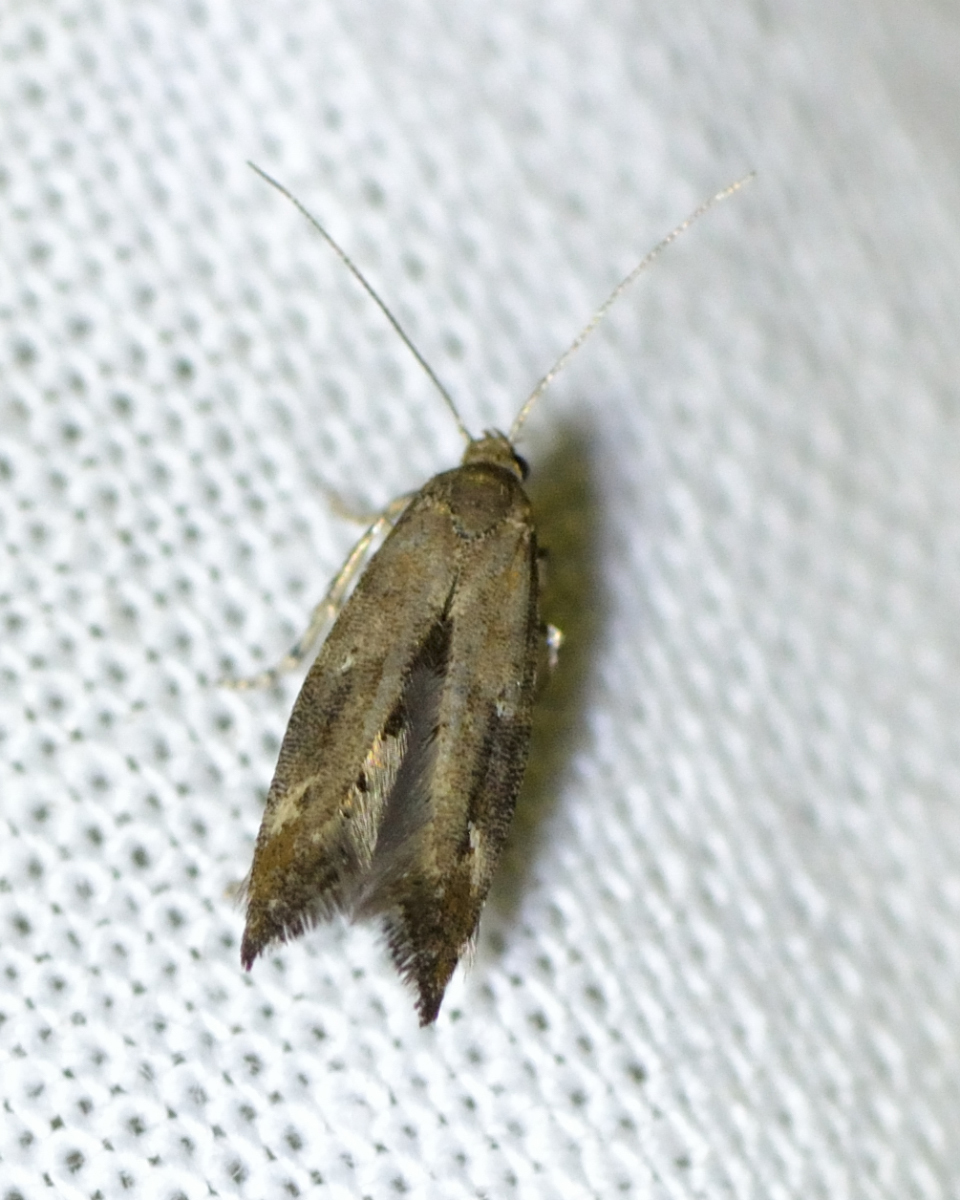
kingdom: Animalia
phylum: Arthropoda
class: Insecta
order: Lepidoptera
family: Epermeniidae
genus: Epermenia
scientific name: Epermenia chaerophyllellus
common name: Garden lance-wing
